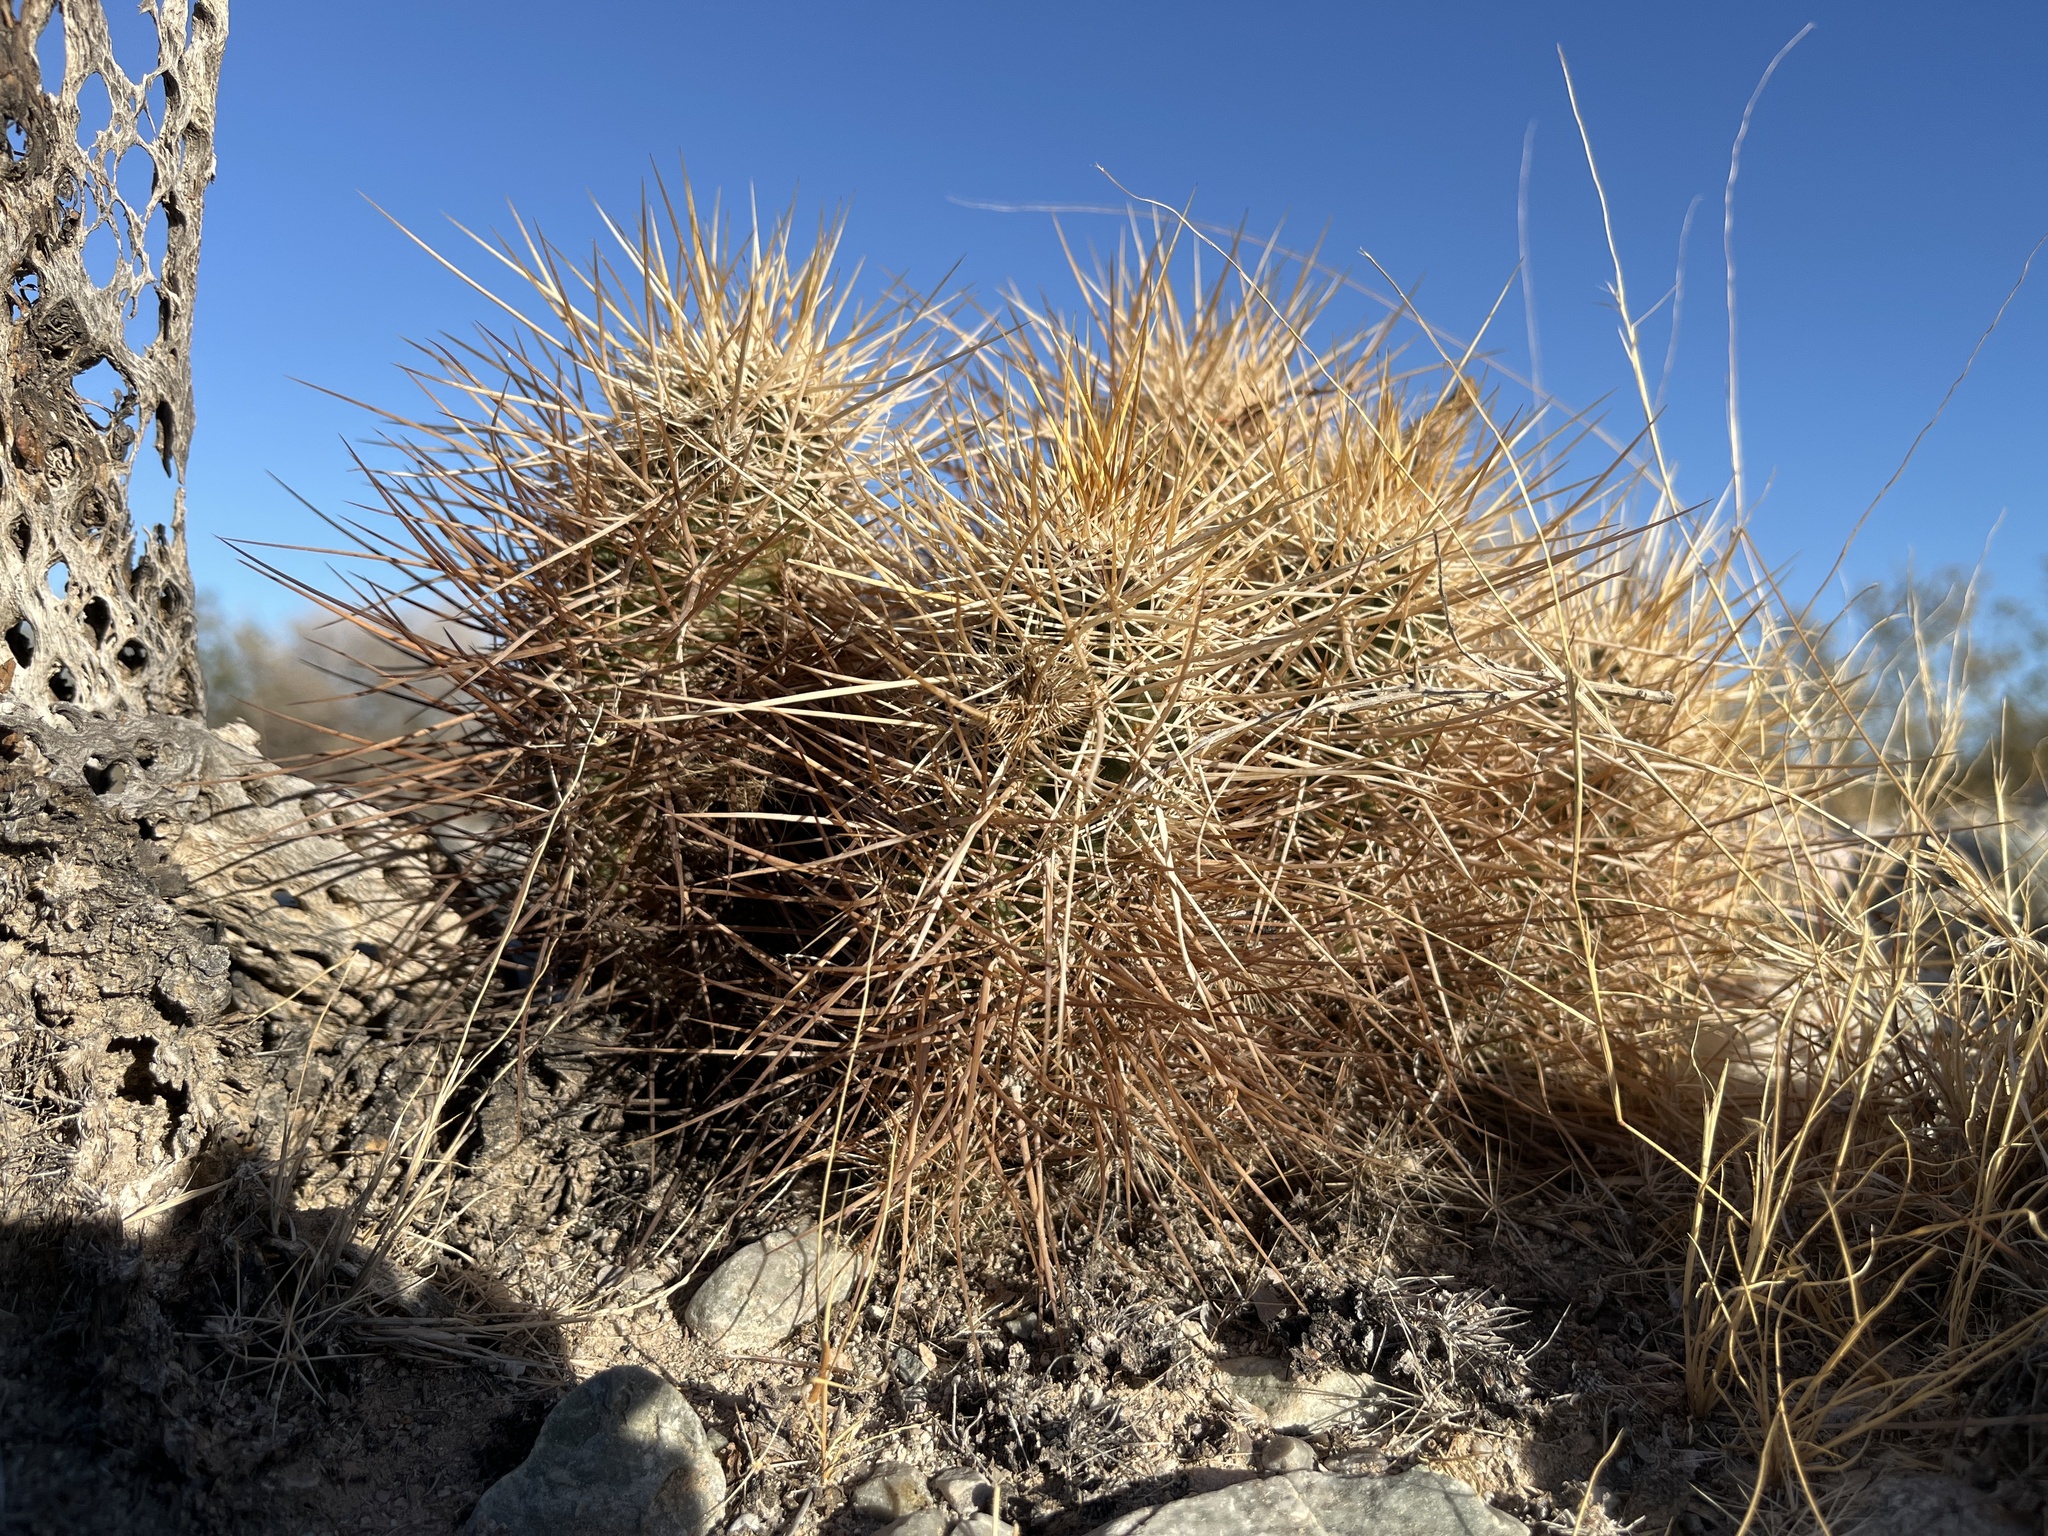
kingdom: Plantae
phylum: Tracheophyta
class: Magnoliopsida
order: Caryophyllales
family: Cactaceae
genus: Echinocereus
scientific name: Echinocereus engelmannii
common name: Engelmann's hedgehog cactus
